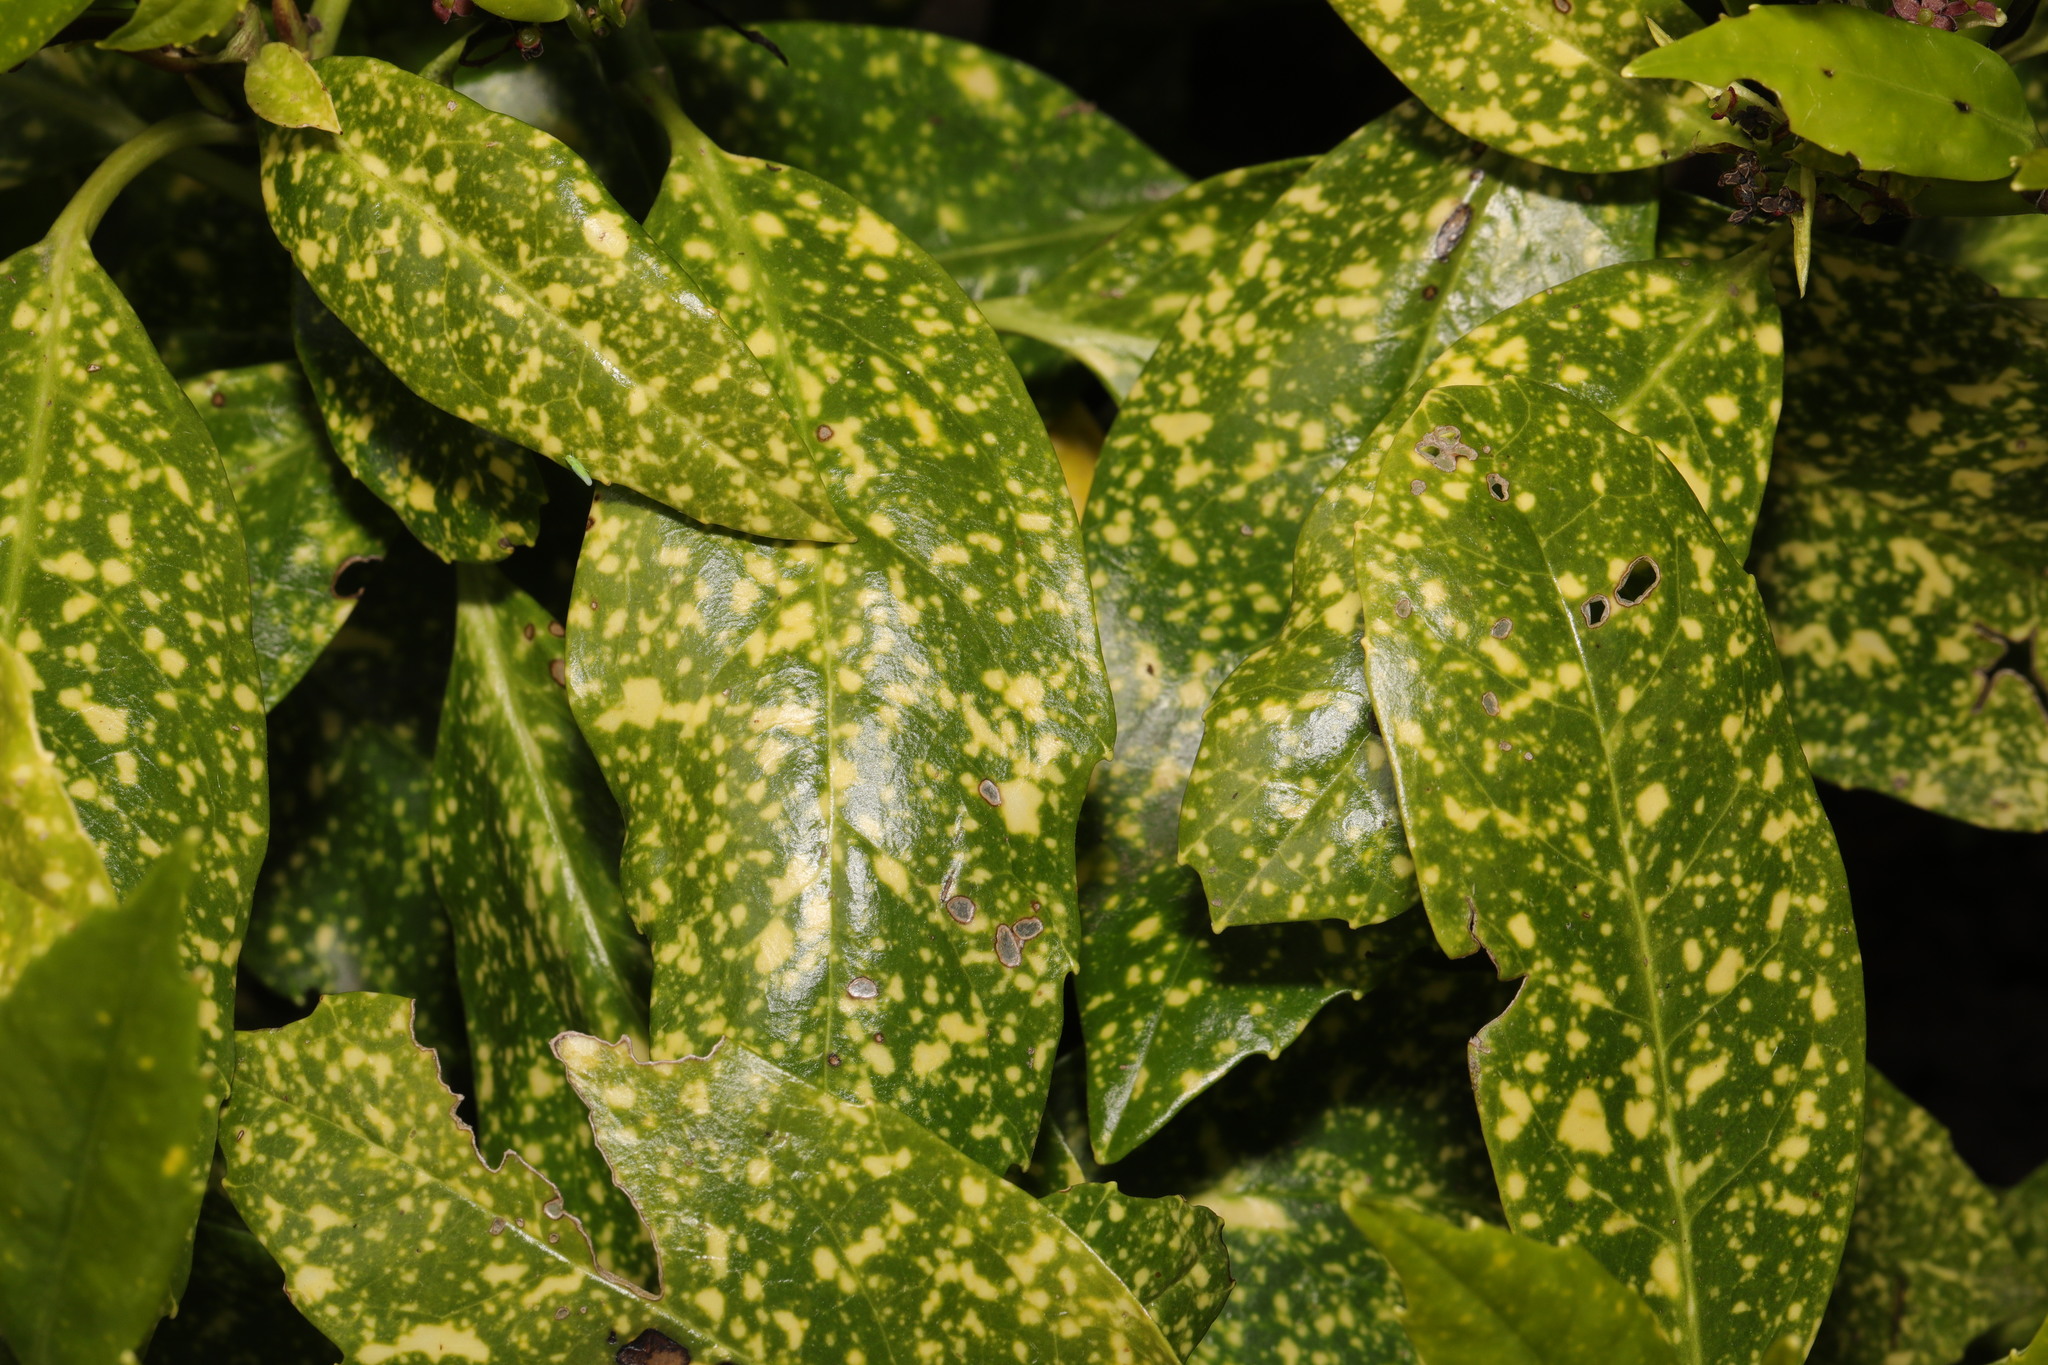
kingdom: Plantae
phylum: Tracheophyta
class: Magnoliopsida
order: Garryales
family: Garryaceae
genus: Aucuba
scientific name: Aucuba japonica
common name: Spotted-laurel
